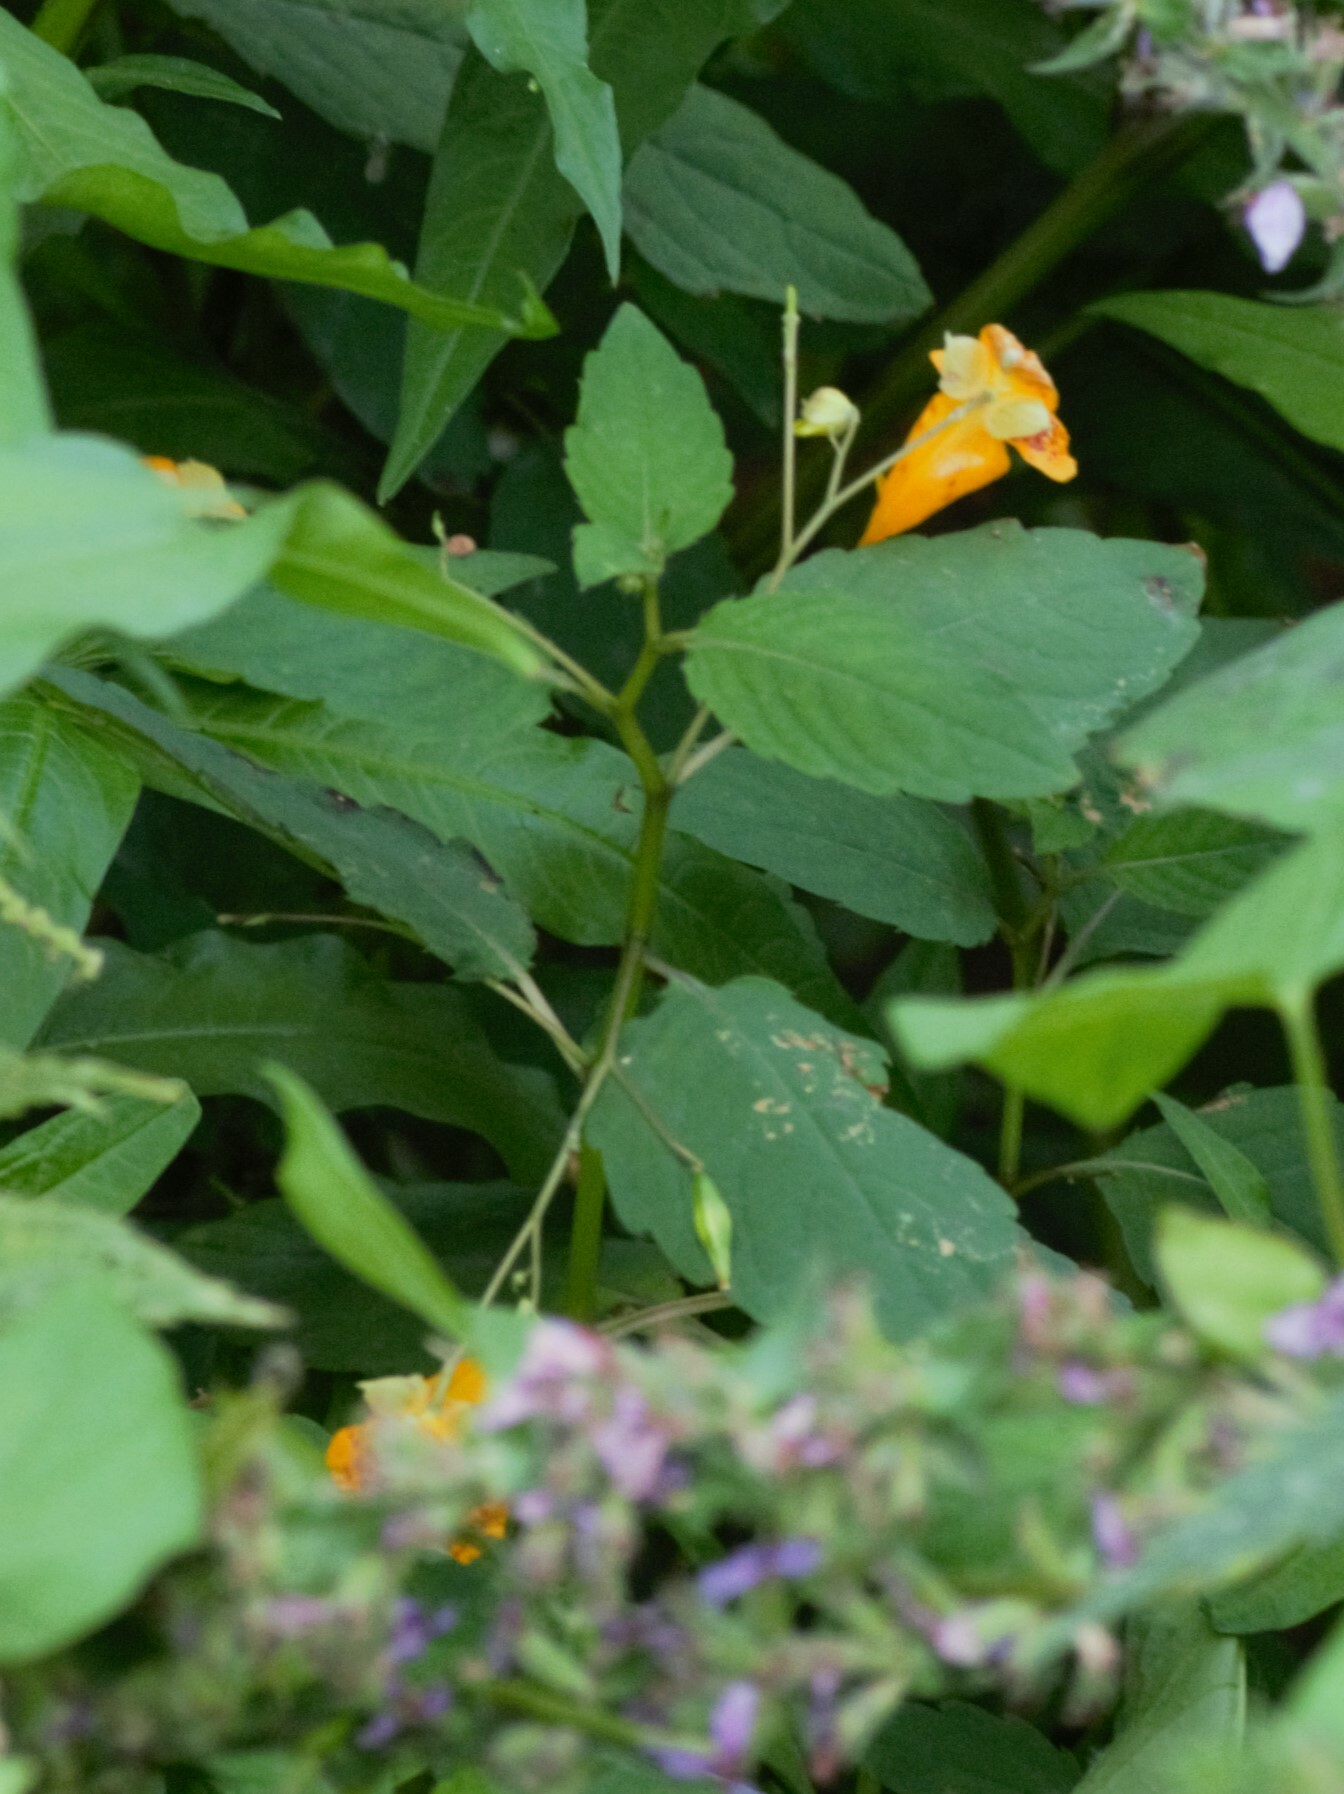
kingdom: Plantae
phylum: Tracheophyta
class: Magnoliopsida
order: Ericales
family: Balsaminaceae
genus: Impatiens
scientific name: Impatiens capensis
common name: Orange balsam
